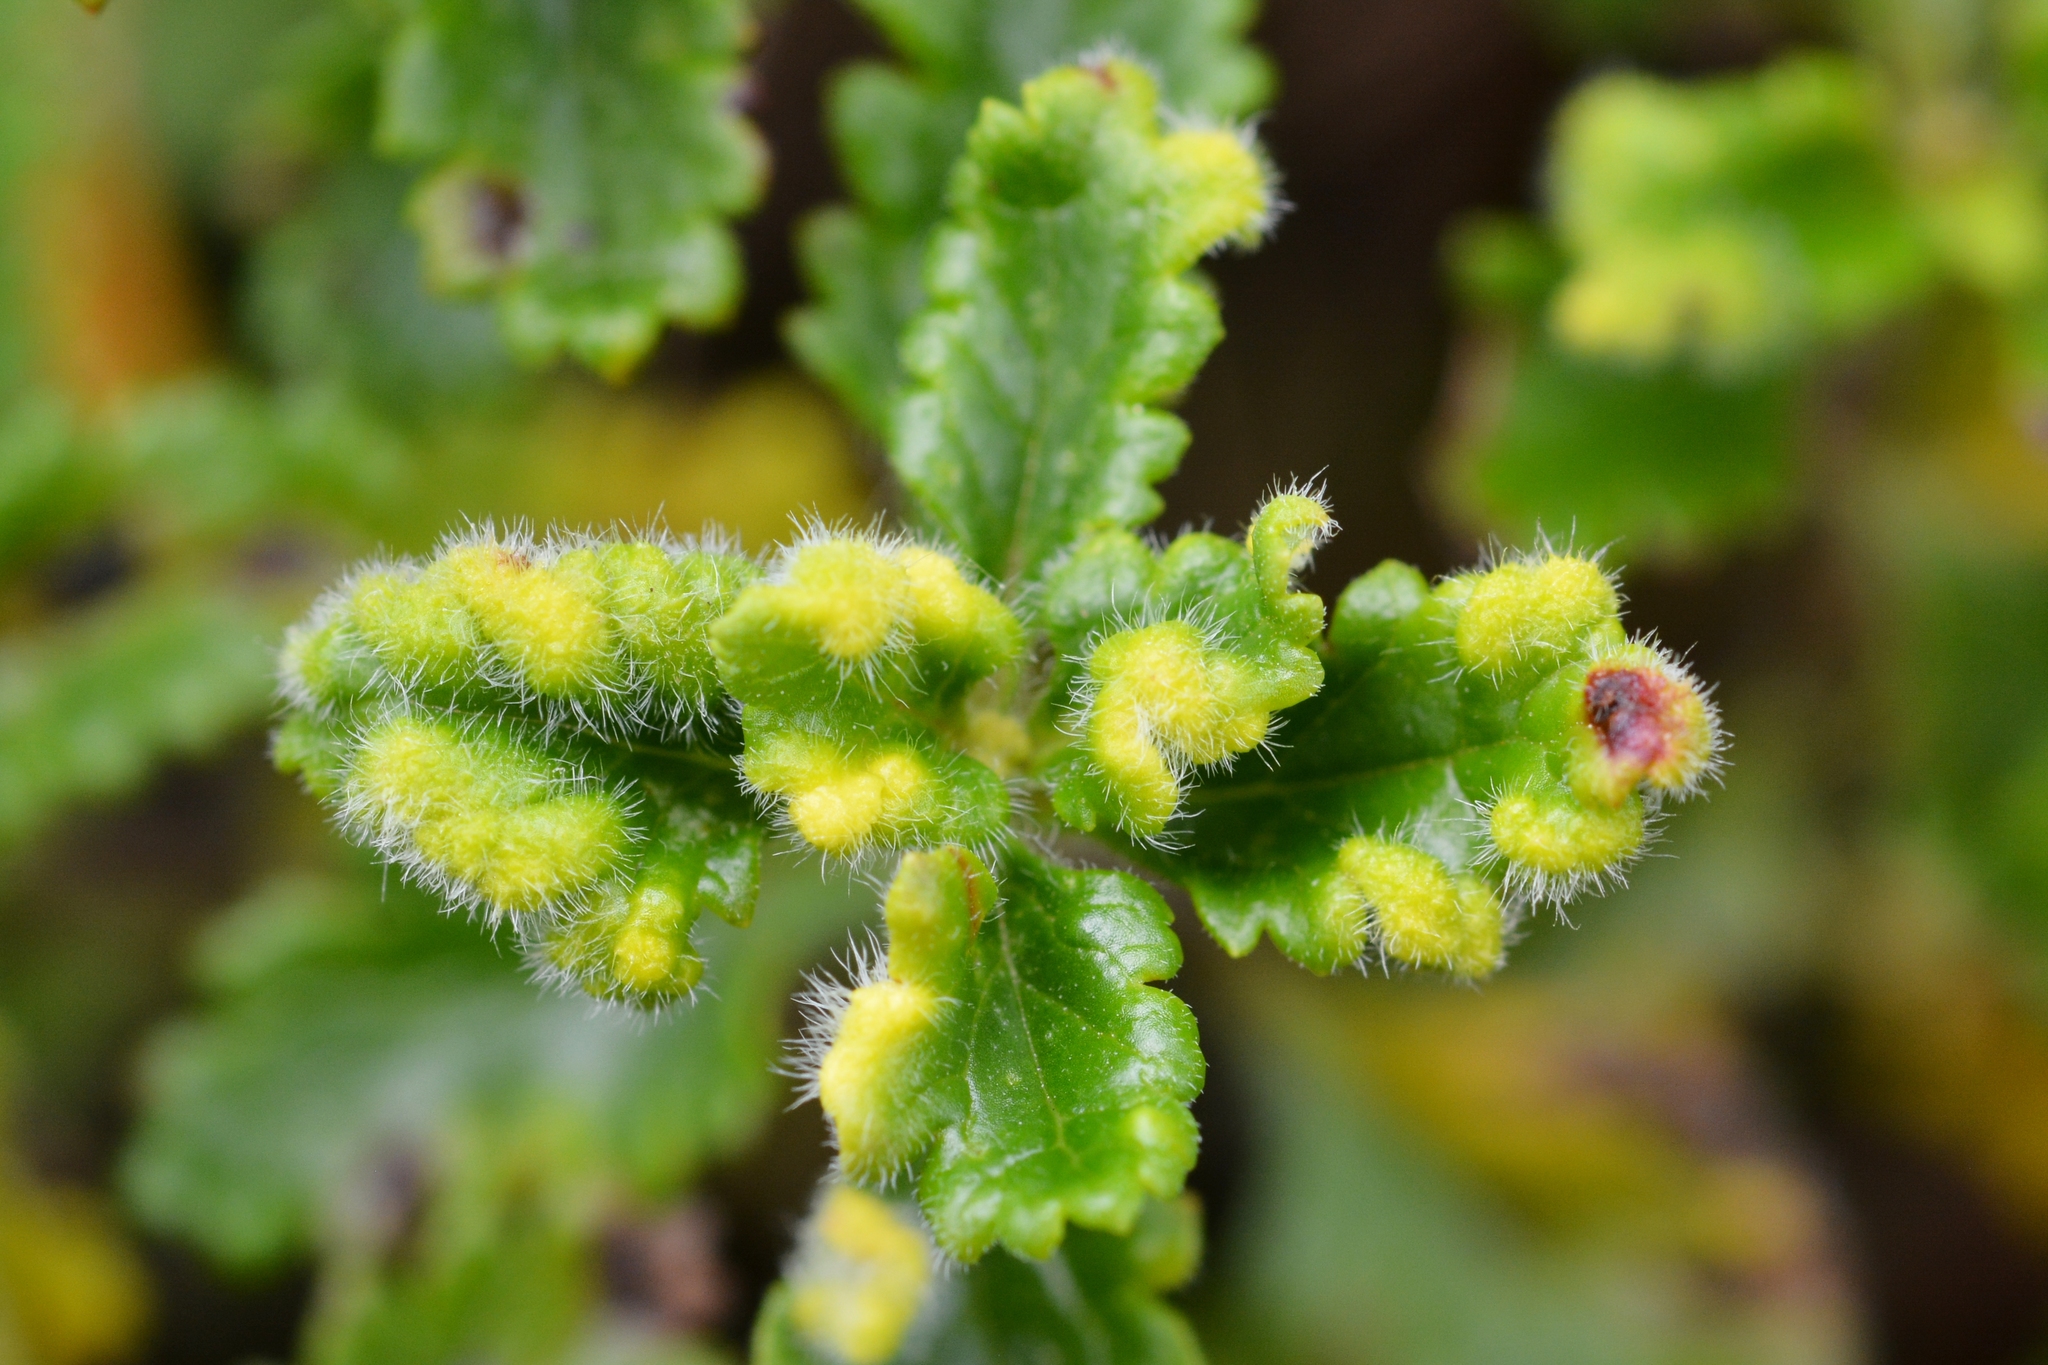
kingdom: Animalia
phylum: Arthropoda
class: Arachnida
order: Trombidiformes
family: Eriophyidae
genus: Aculus
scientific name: Aculus teucrii
